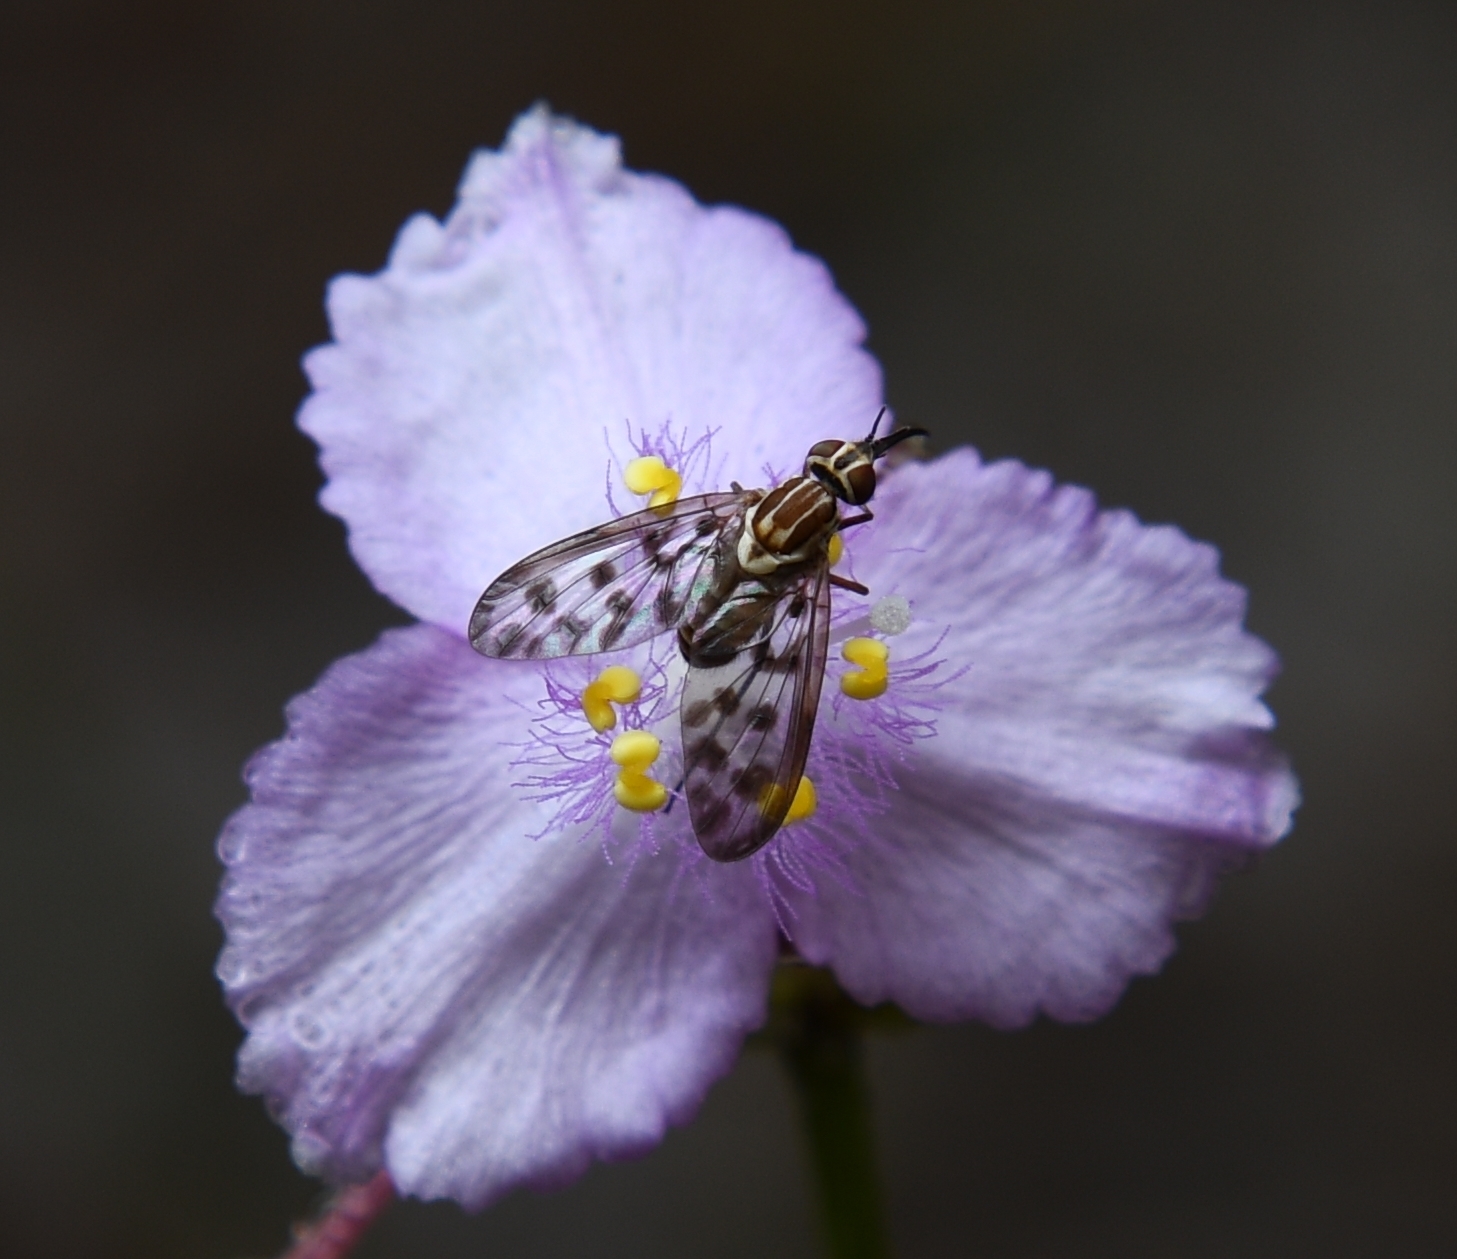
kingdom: Animalia
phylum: Arthropoda
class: Insecta
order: Diptera
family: Bombyliidae
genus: Poecilognathus
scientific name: Poecilognathus punctipennis
